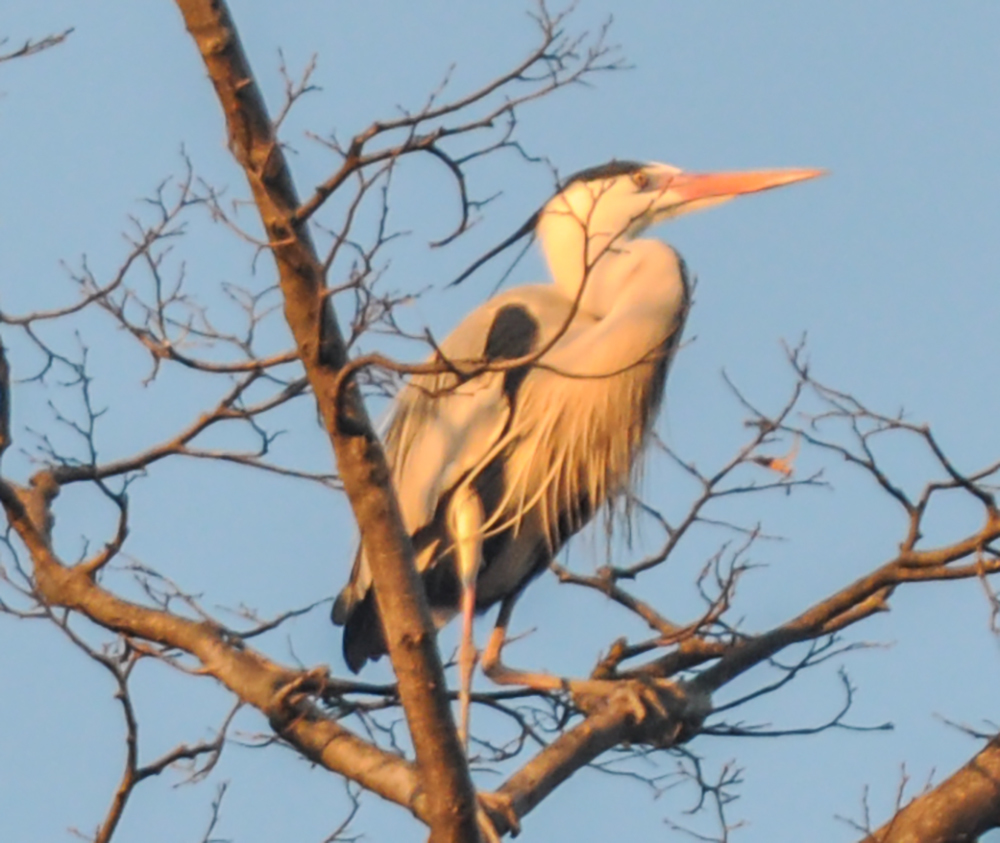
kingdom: Animalia
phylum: Chordata
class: Aves
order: Pelecaniformes
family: Ardeidae
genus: Ardea
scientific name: Ardea cinerea
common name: Grey heron
